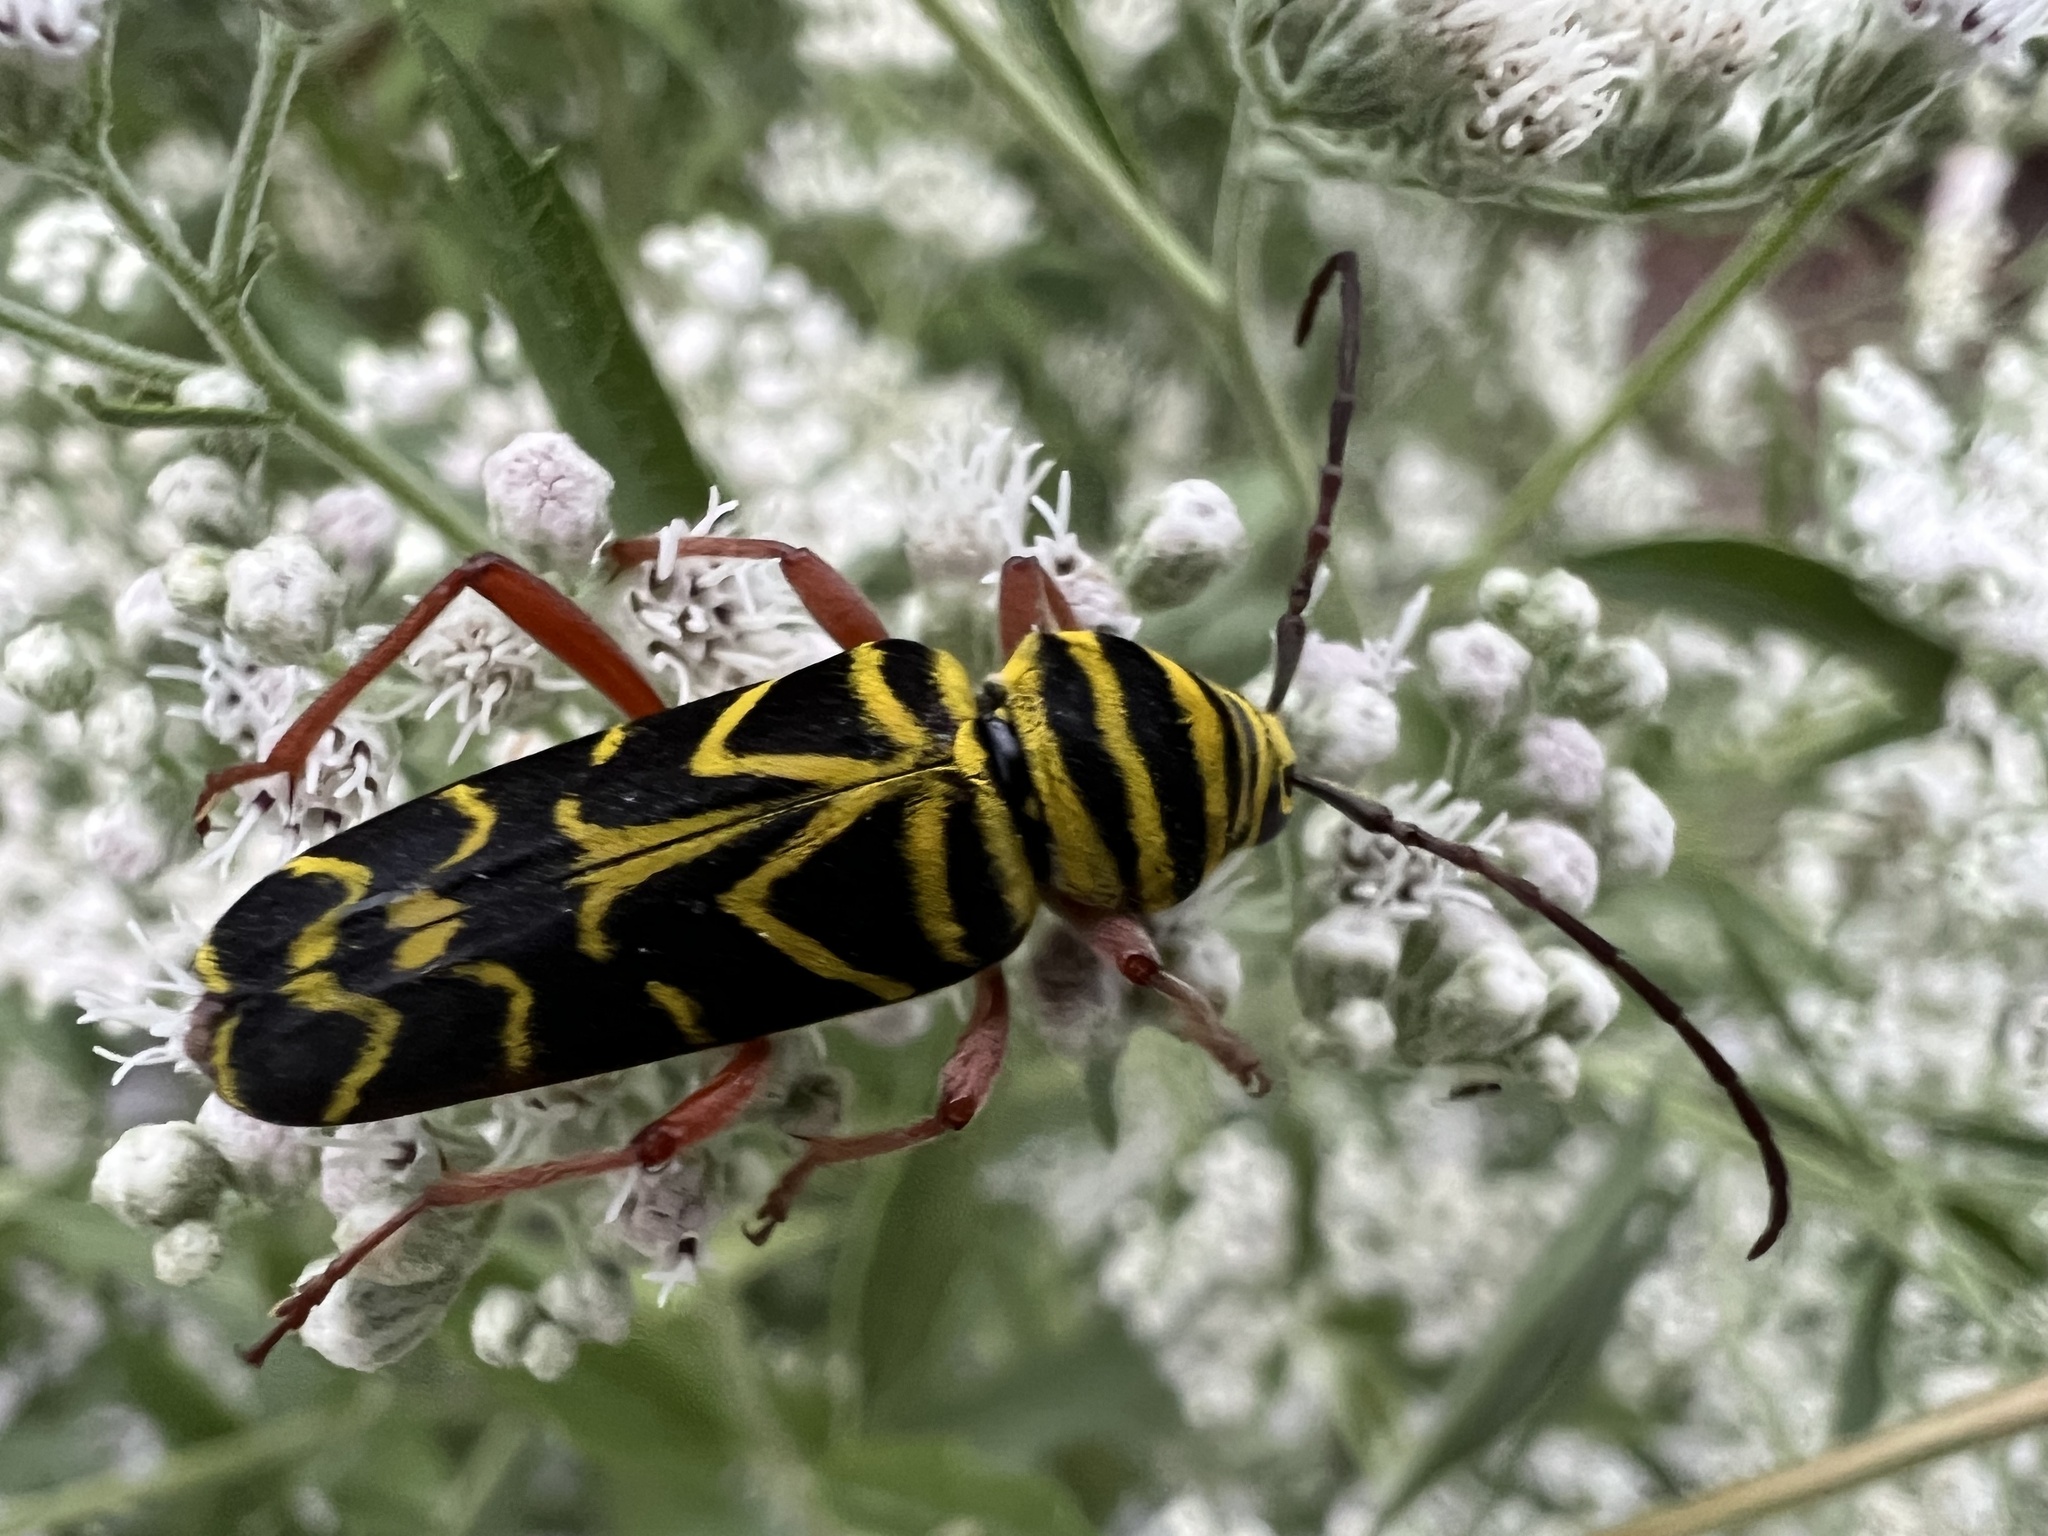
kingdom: Animalia
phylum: Arthropoda
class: Insecta
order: Coleoptera
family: Cerambycidae
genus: Megacyllene
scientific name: Megacyllene robiniae
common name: Locust borer
